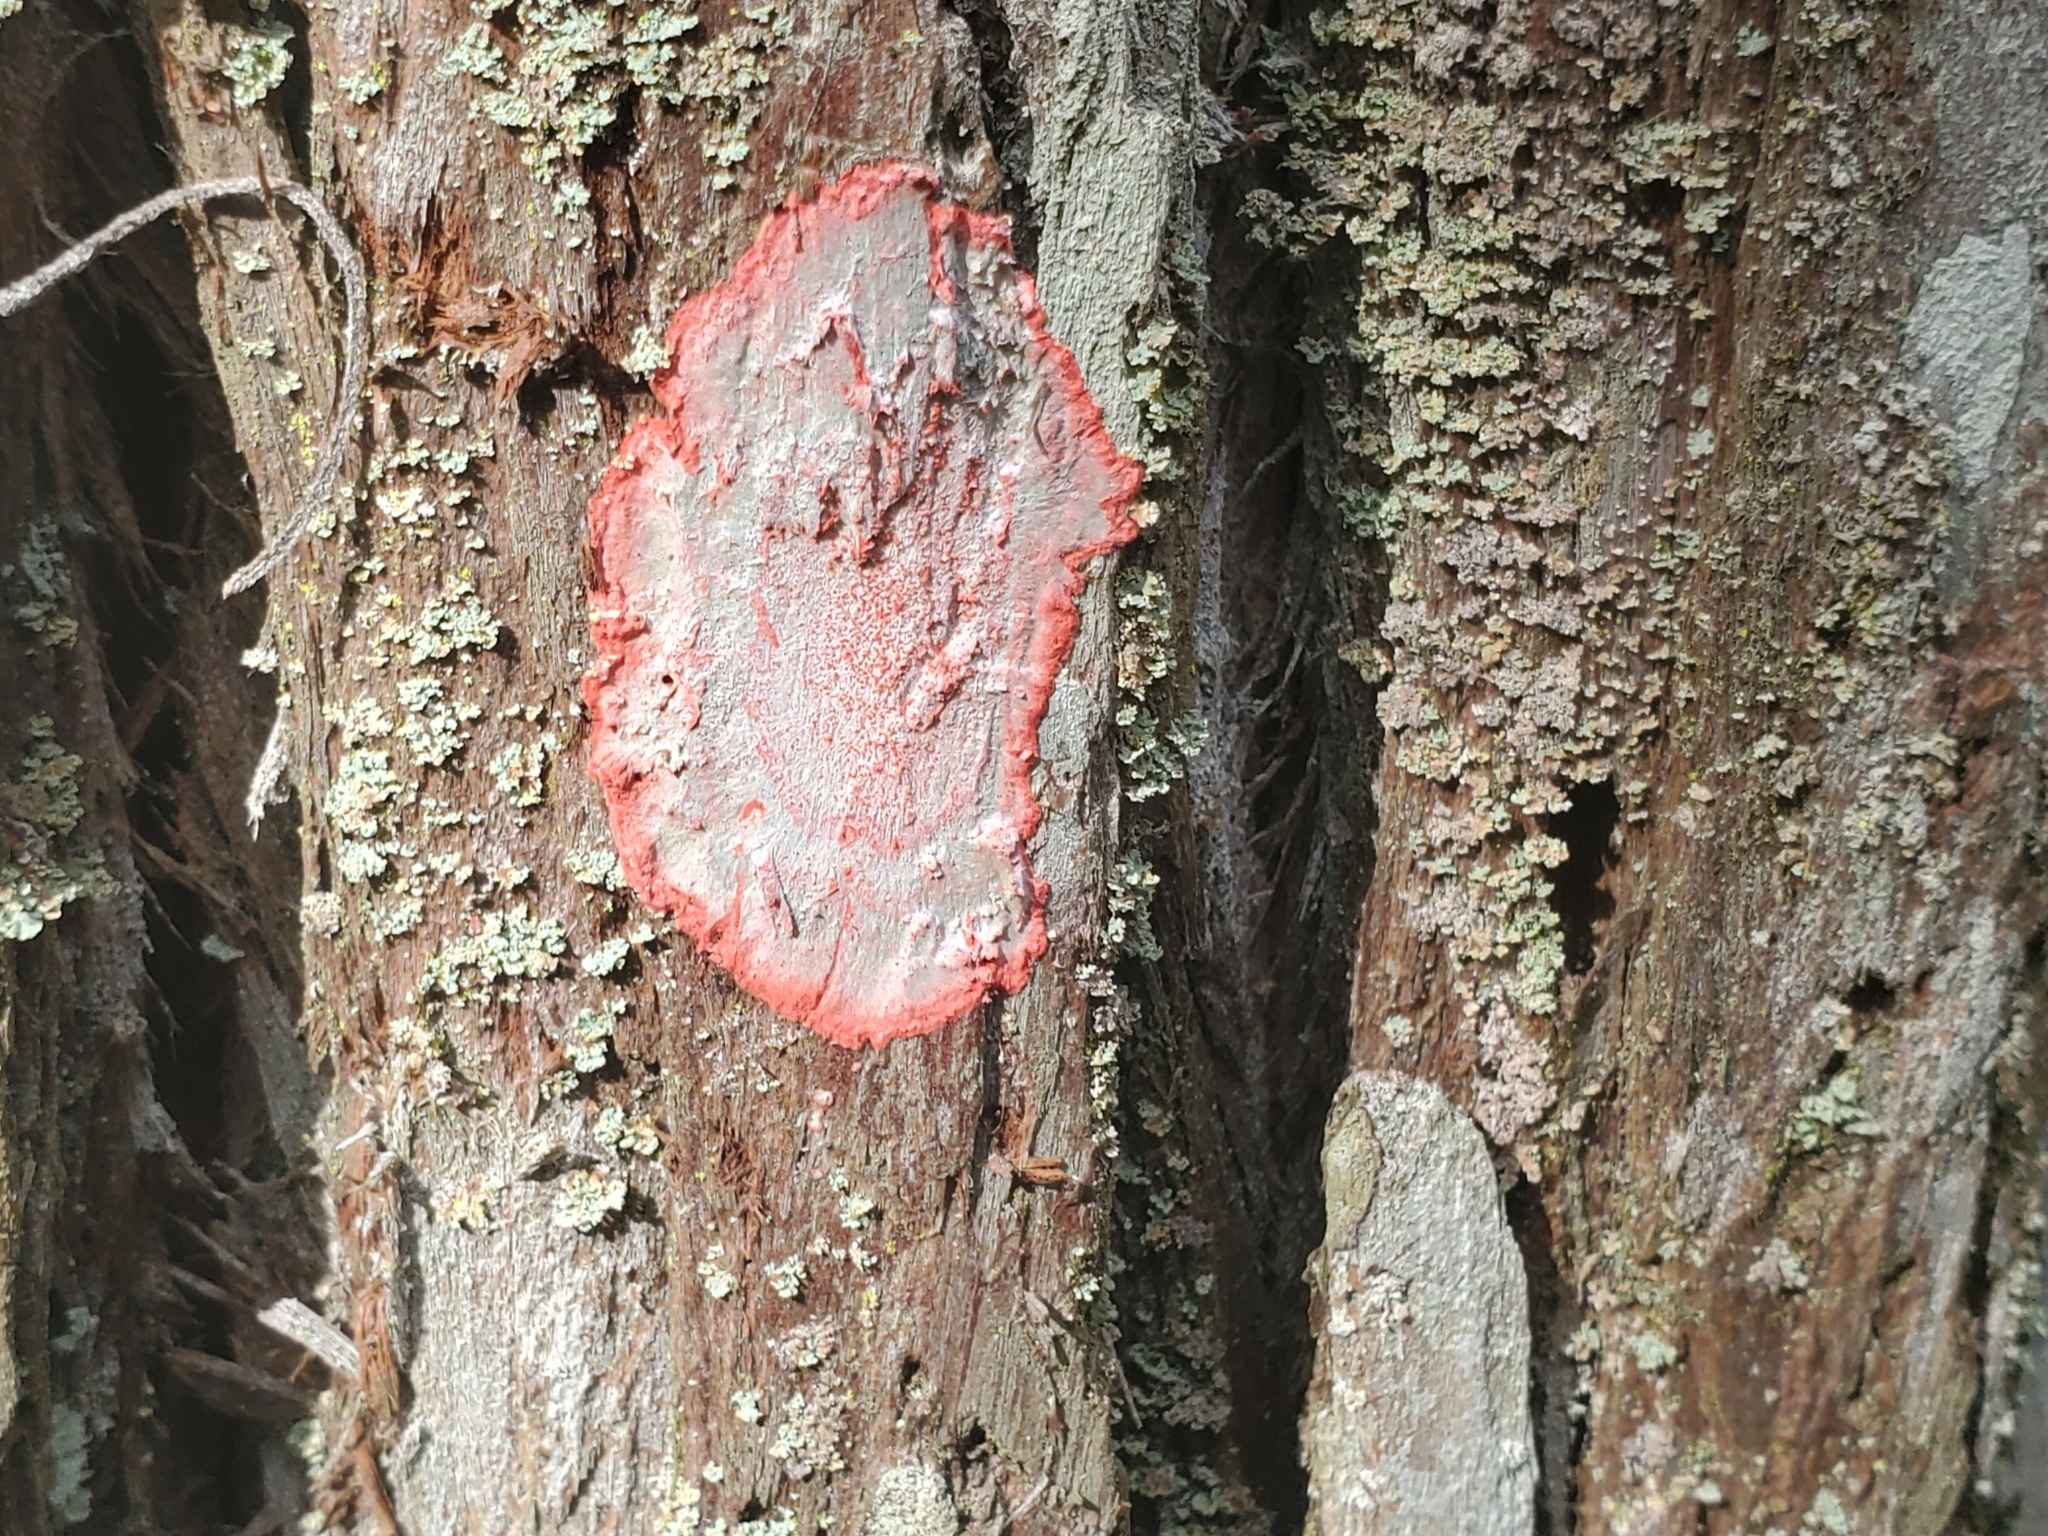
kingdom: Fungi
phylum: Ascomycota
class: Arthoniomycetes
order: Arthoniales
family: Arthoniaceae
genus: Herpothallon
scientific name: Herpothallon rubrocinctum
